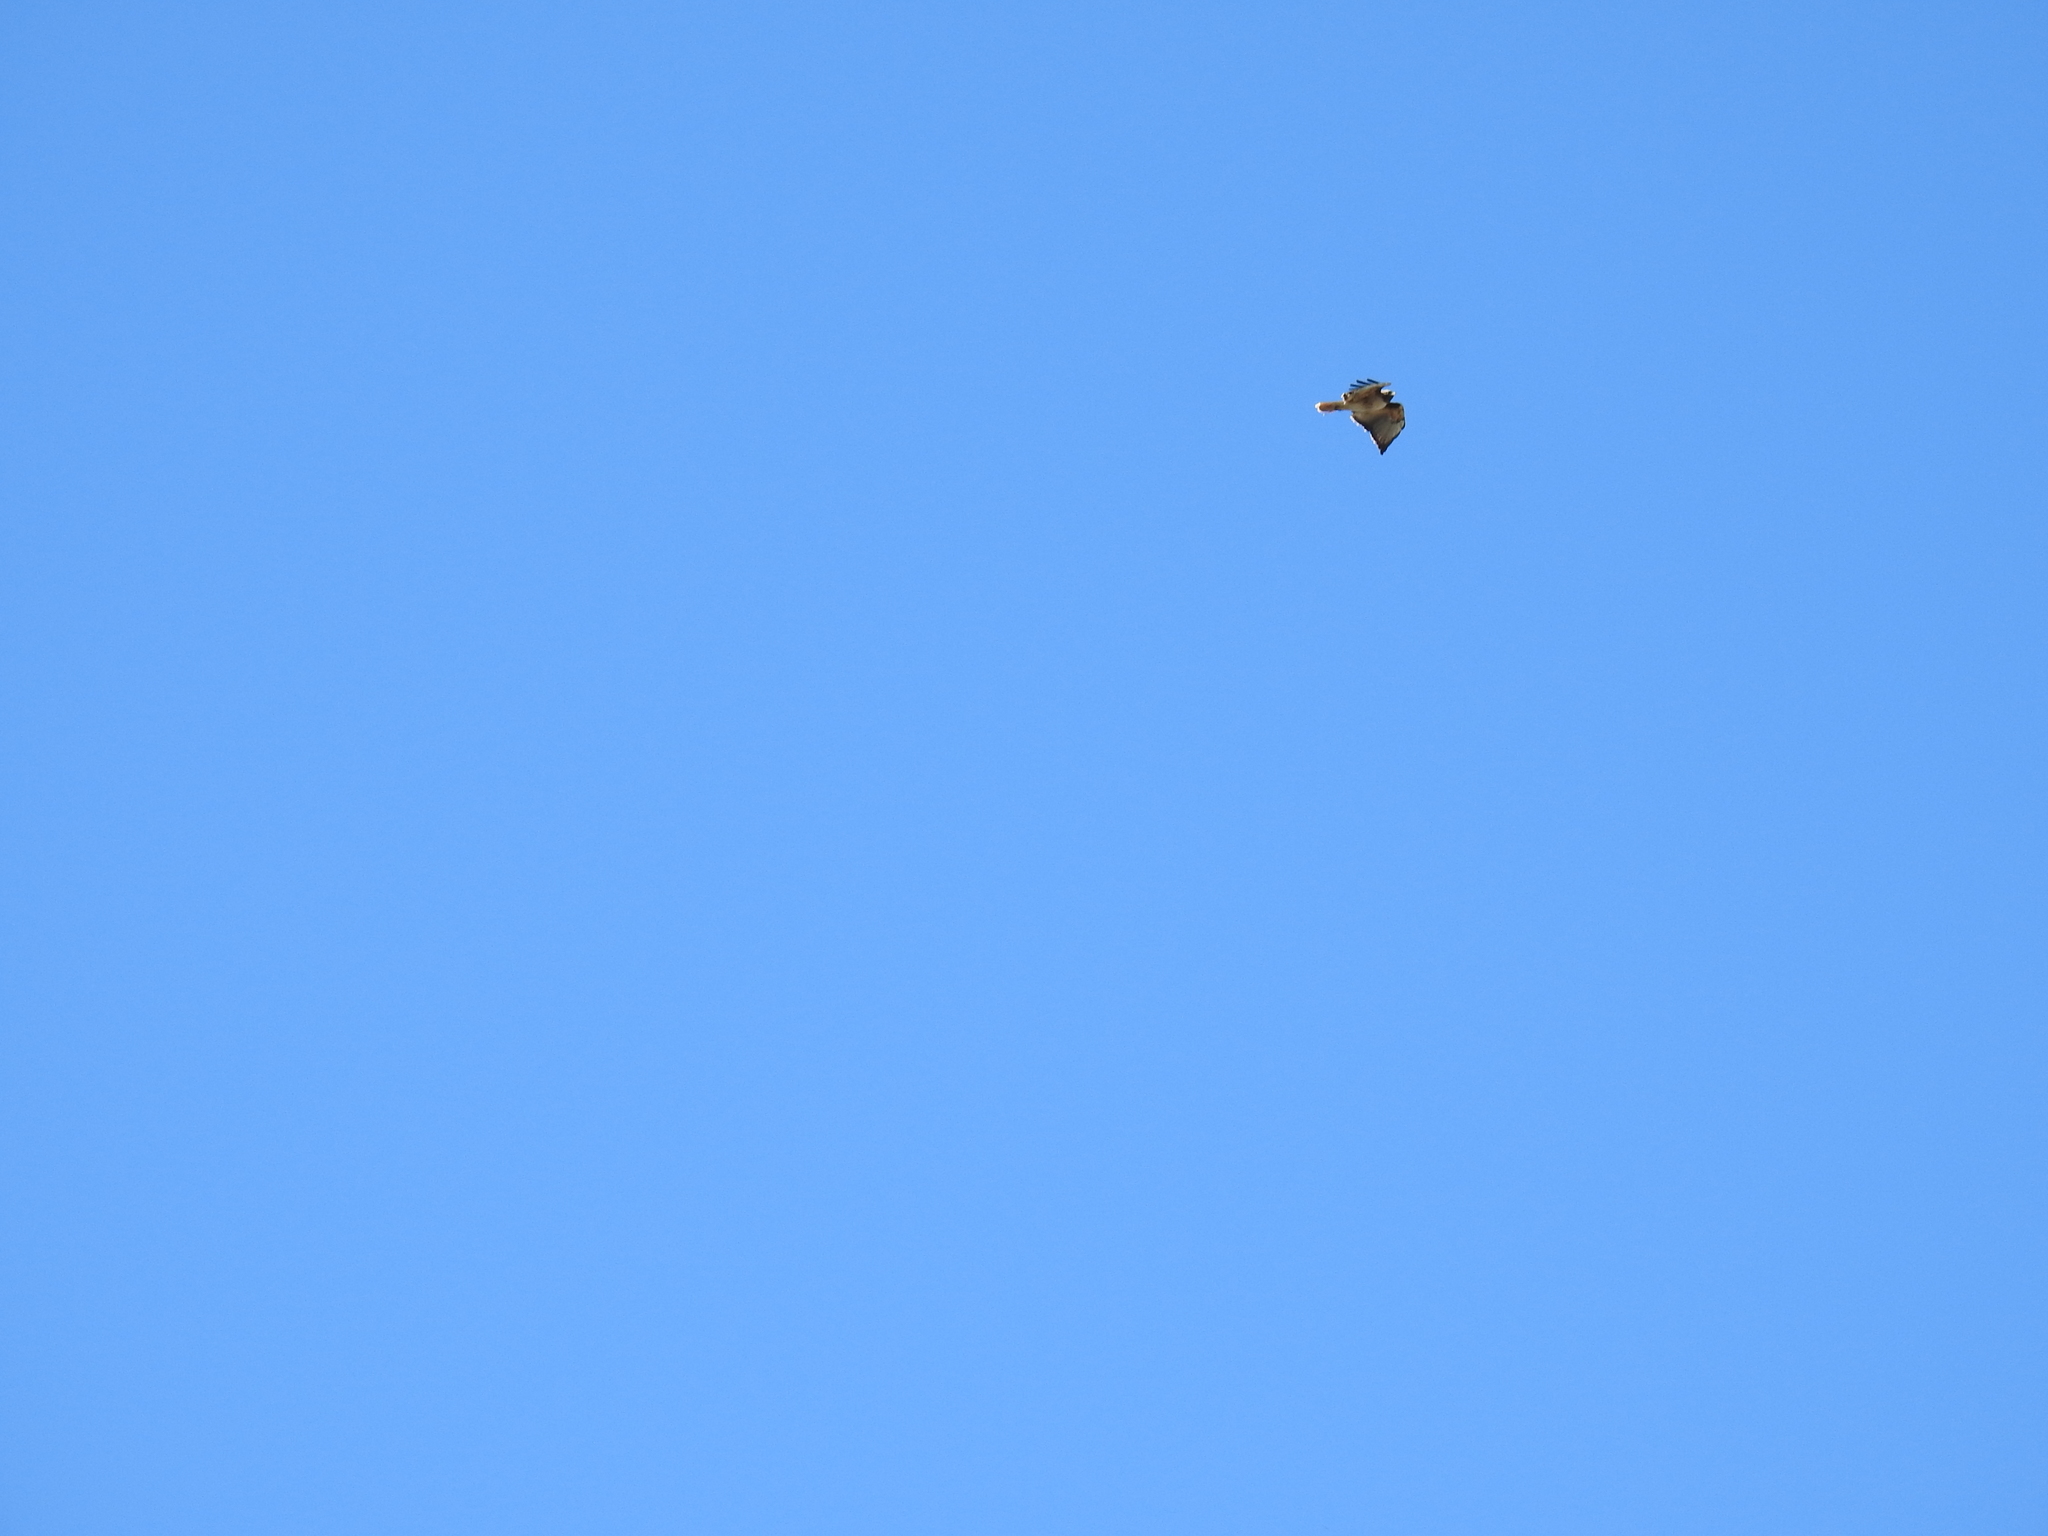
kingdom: Animalia
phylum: Chordata
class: Aves
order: Accipitriformes
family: Accipitridae
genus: Buteo
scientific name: Buteo jamaicensis
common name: Red-tailed hawk
